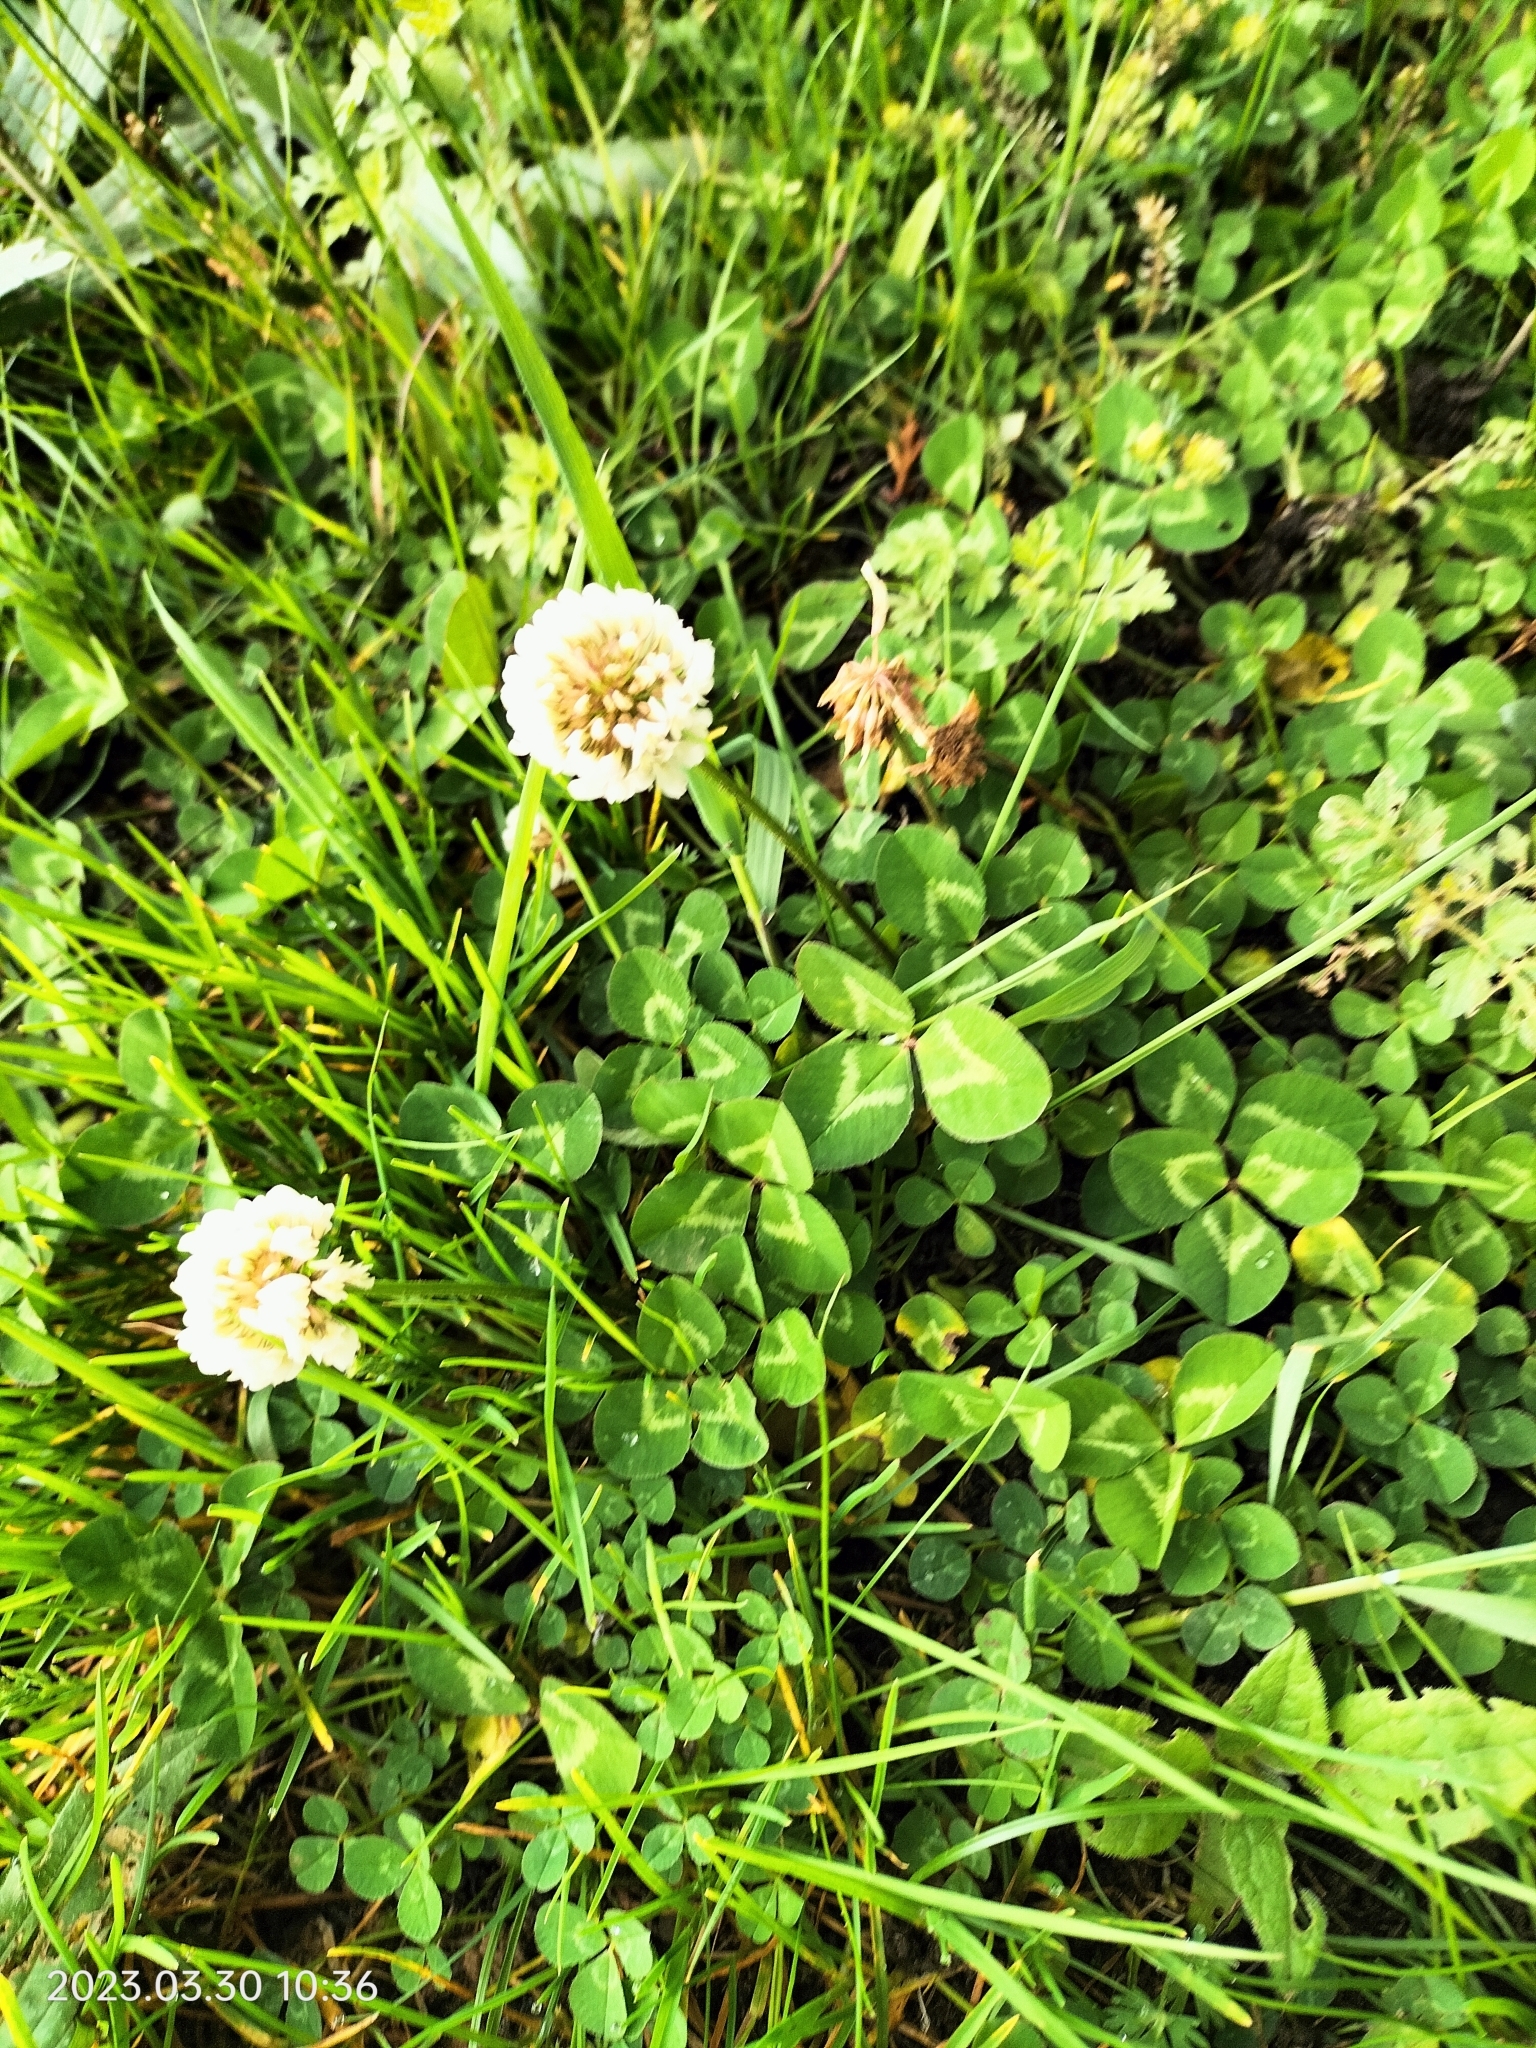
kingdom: Plantae
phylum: Tracheophyta
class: Magnoliopsida
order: Fabales
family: Fabaceae
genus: Trifolium
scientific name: Trifolium repens
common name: White clover
